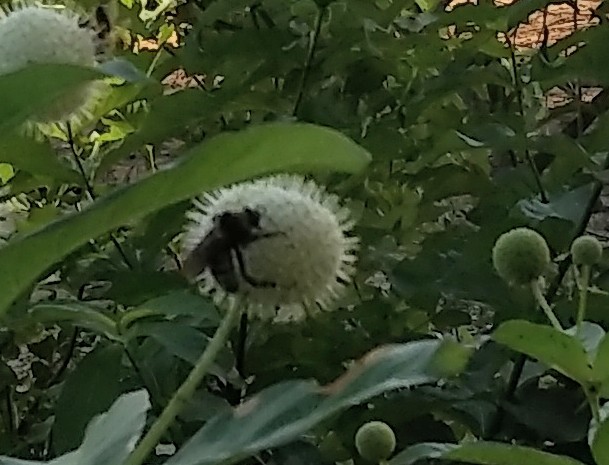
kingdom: Animalia
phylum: Arthropoda
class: Insecta
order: Hymenoptera
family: Apidae
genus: Bombus
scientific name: Bombus pensylvanicus
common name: Bumble bee
